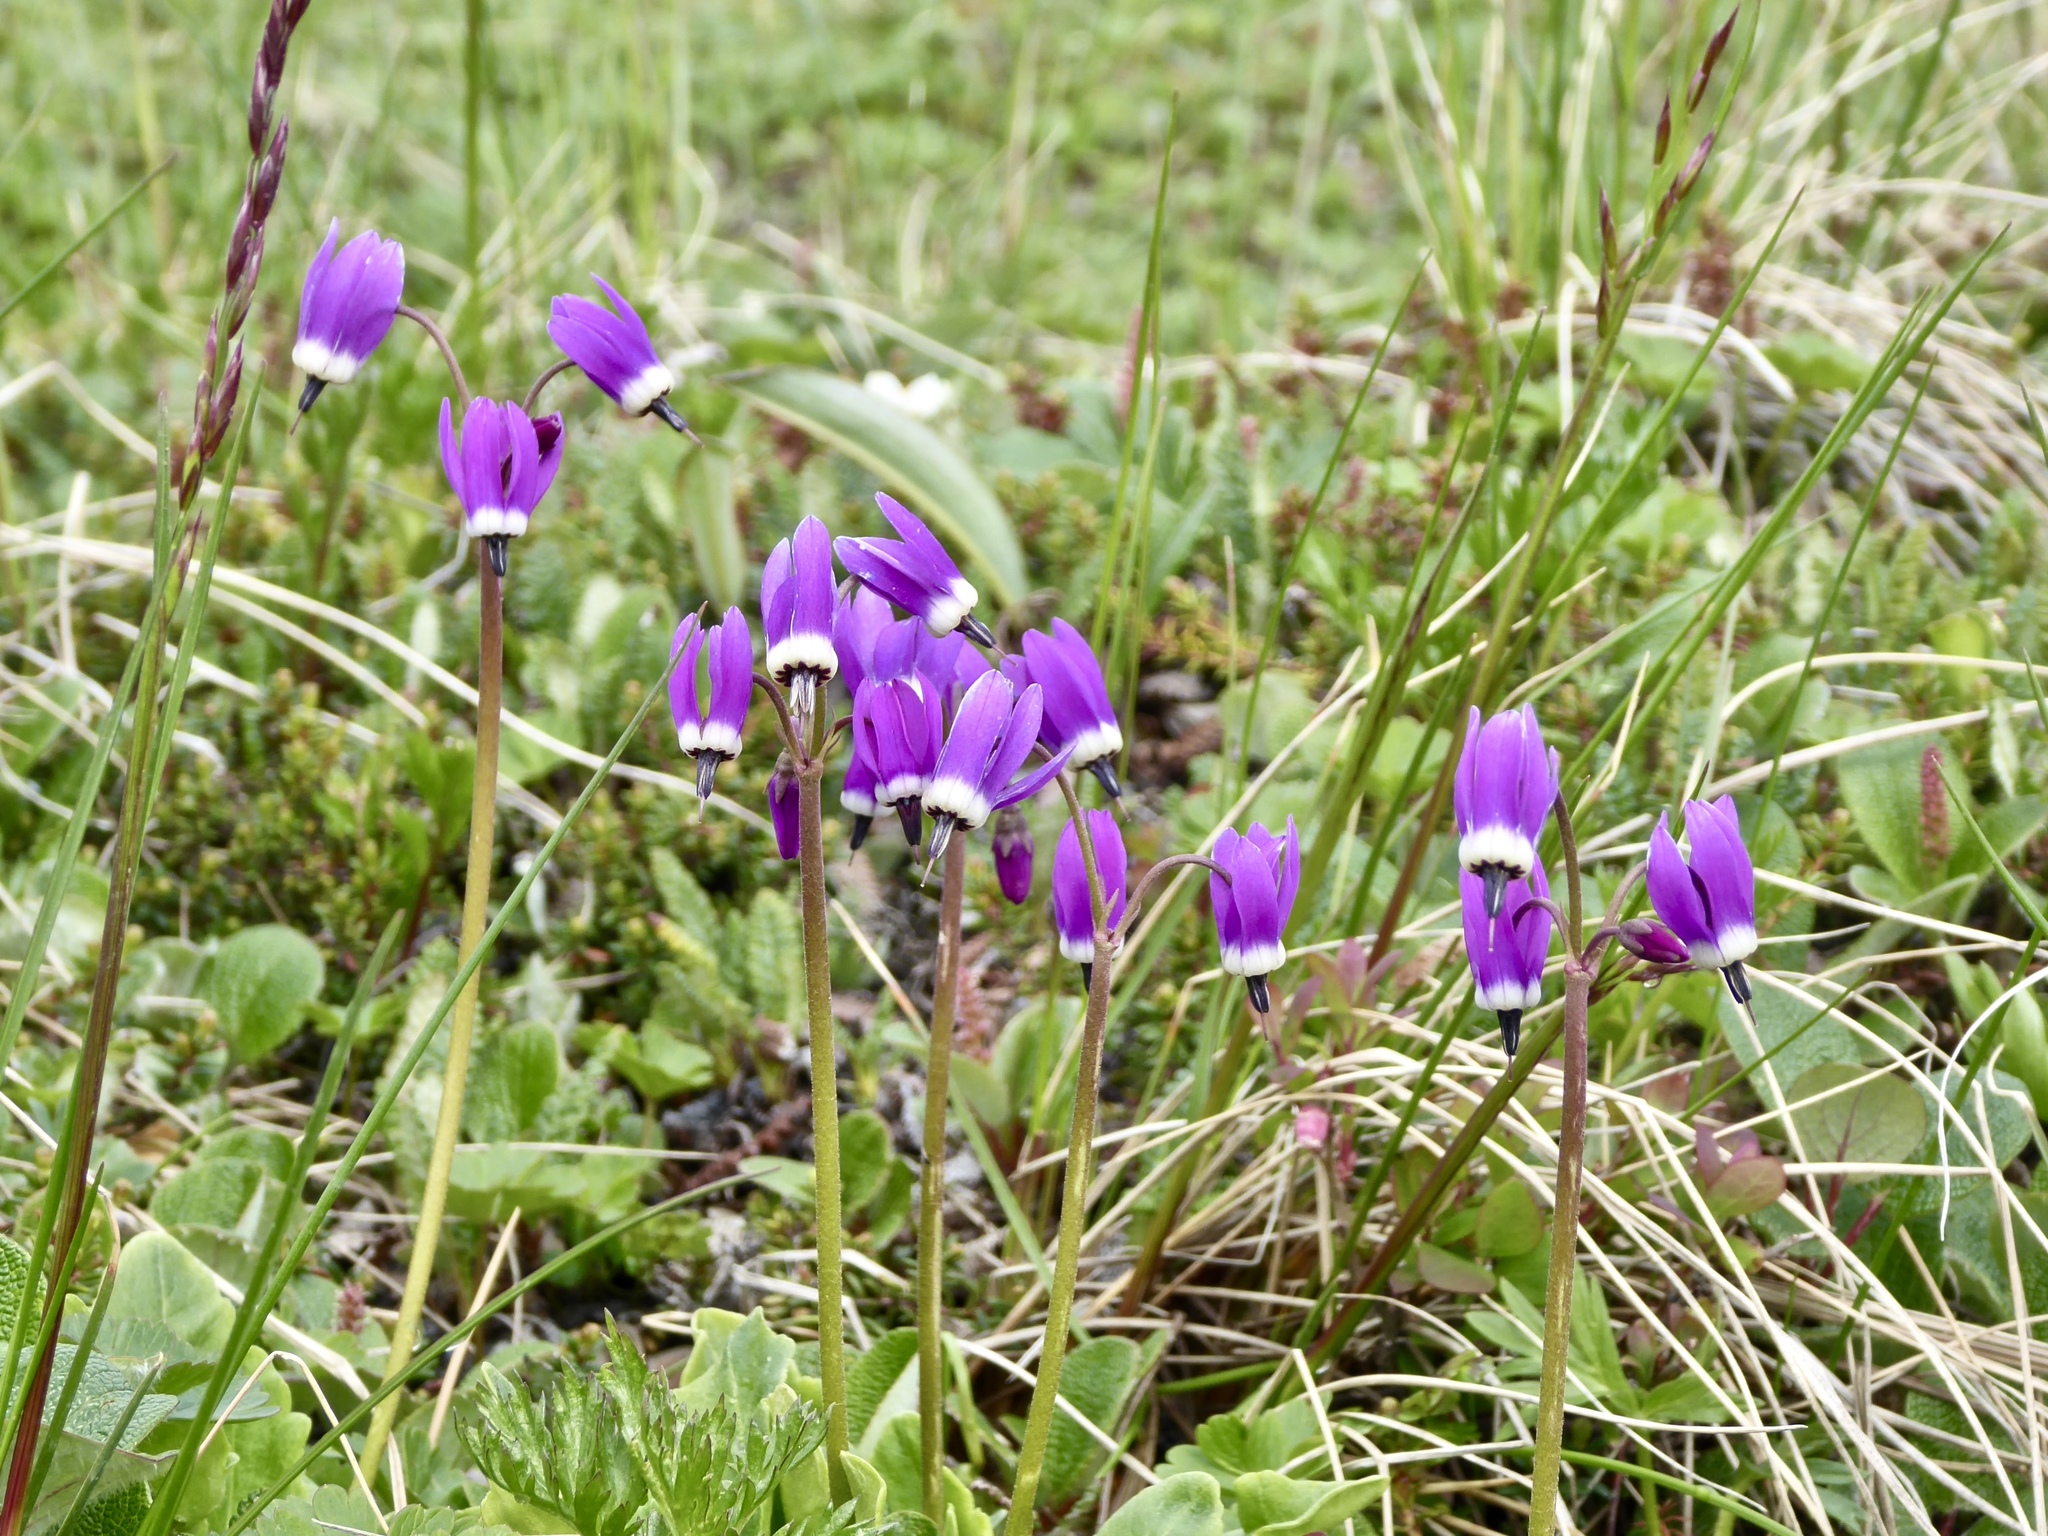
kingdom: Plantae
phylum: Tracheophyta
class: Magnoliopsida
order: Ericales
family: Primulaceae
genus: Dodecatheon
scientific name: Dodecatheon frigidum
